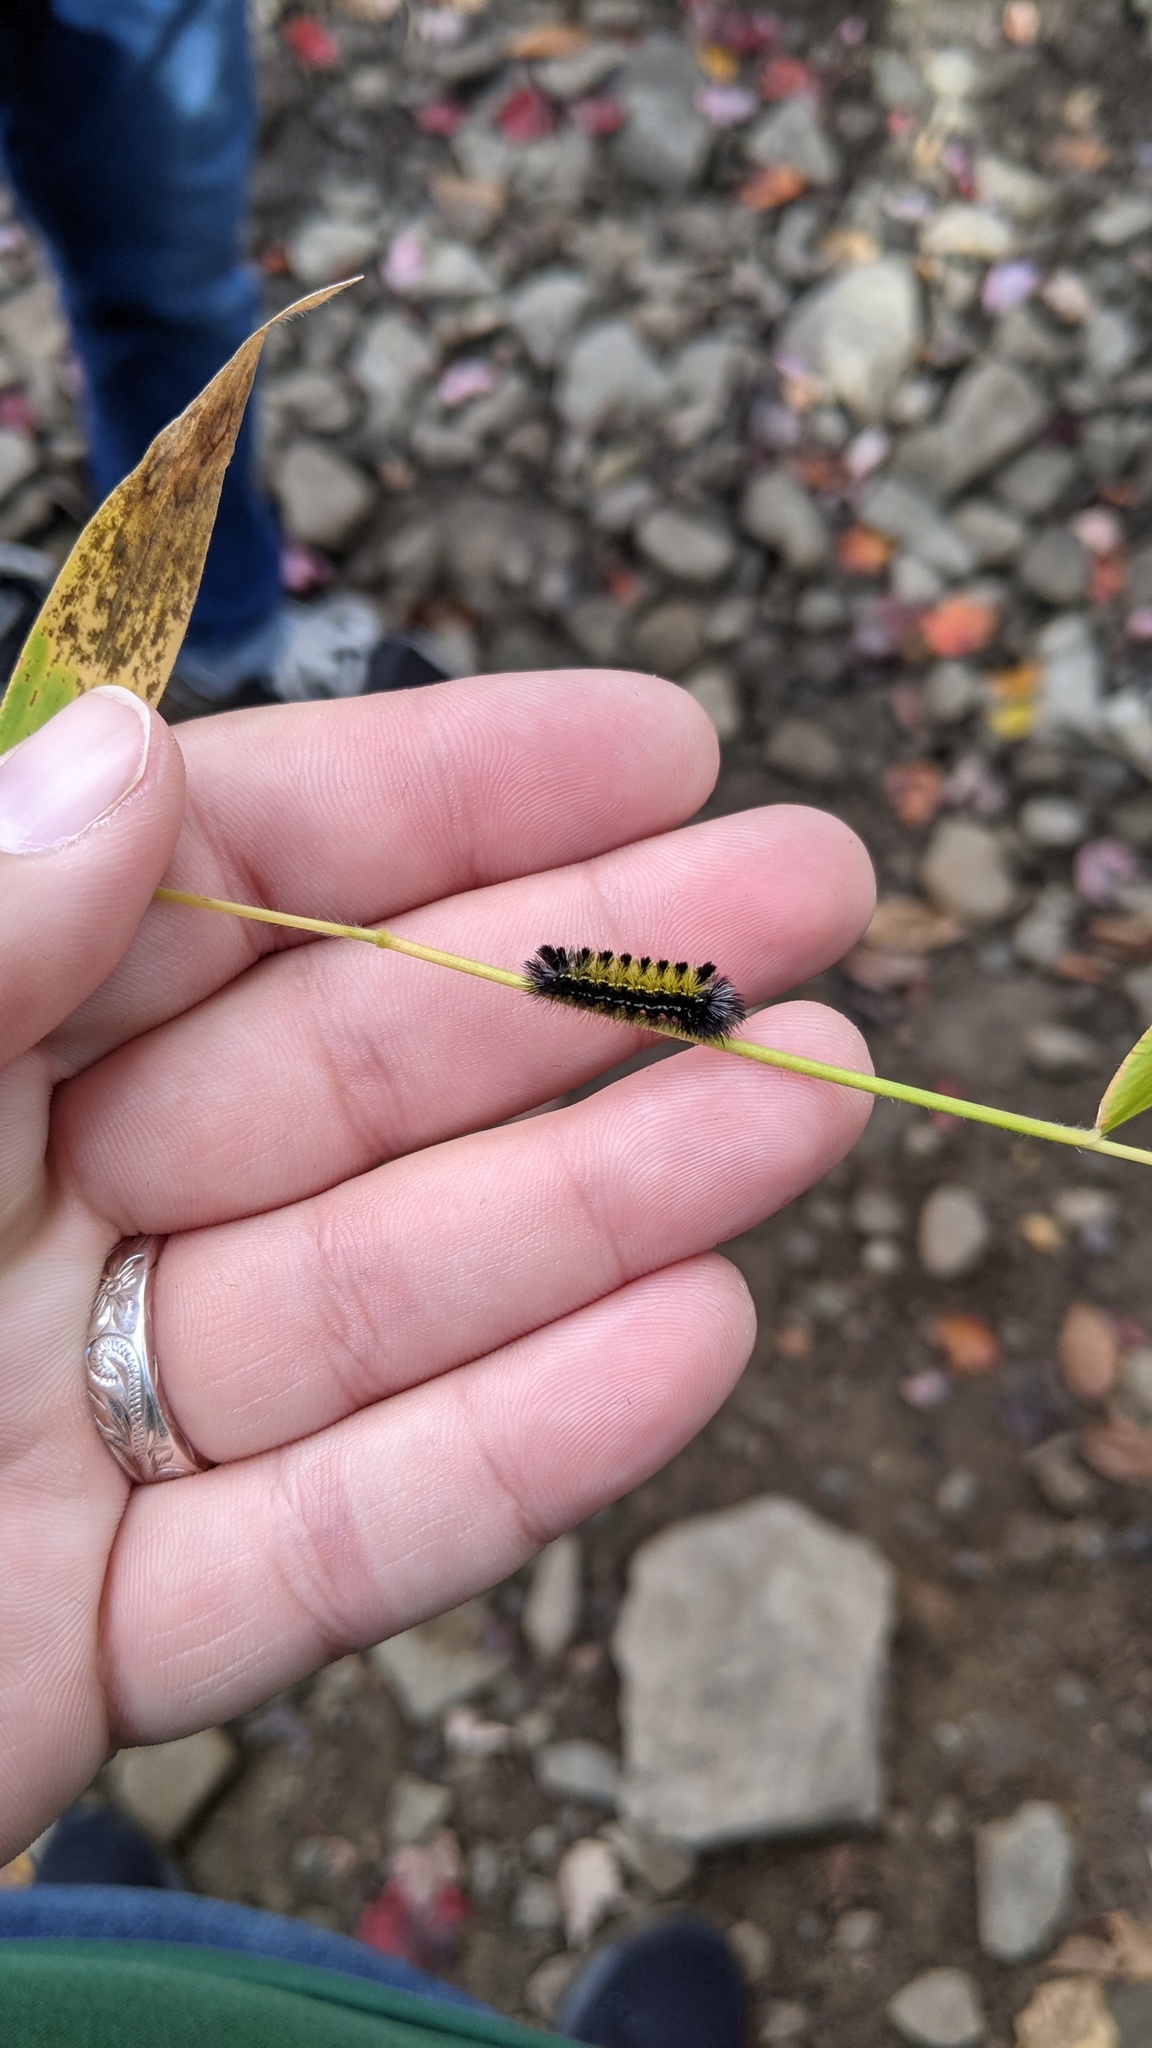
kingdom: Animalia
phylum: Arthropoda
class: Insecta
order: Lepidoptera
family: Erebidae
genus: Ctenucha
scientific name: Ctenucha virginica
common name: Virginia ctenucha moth
